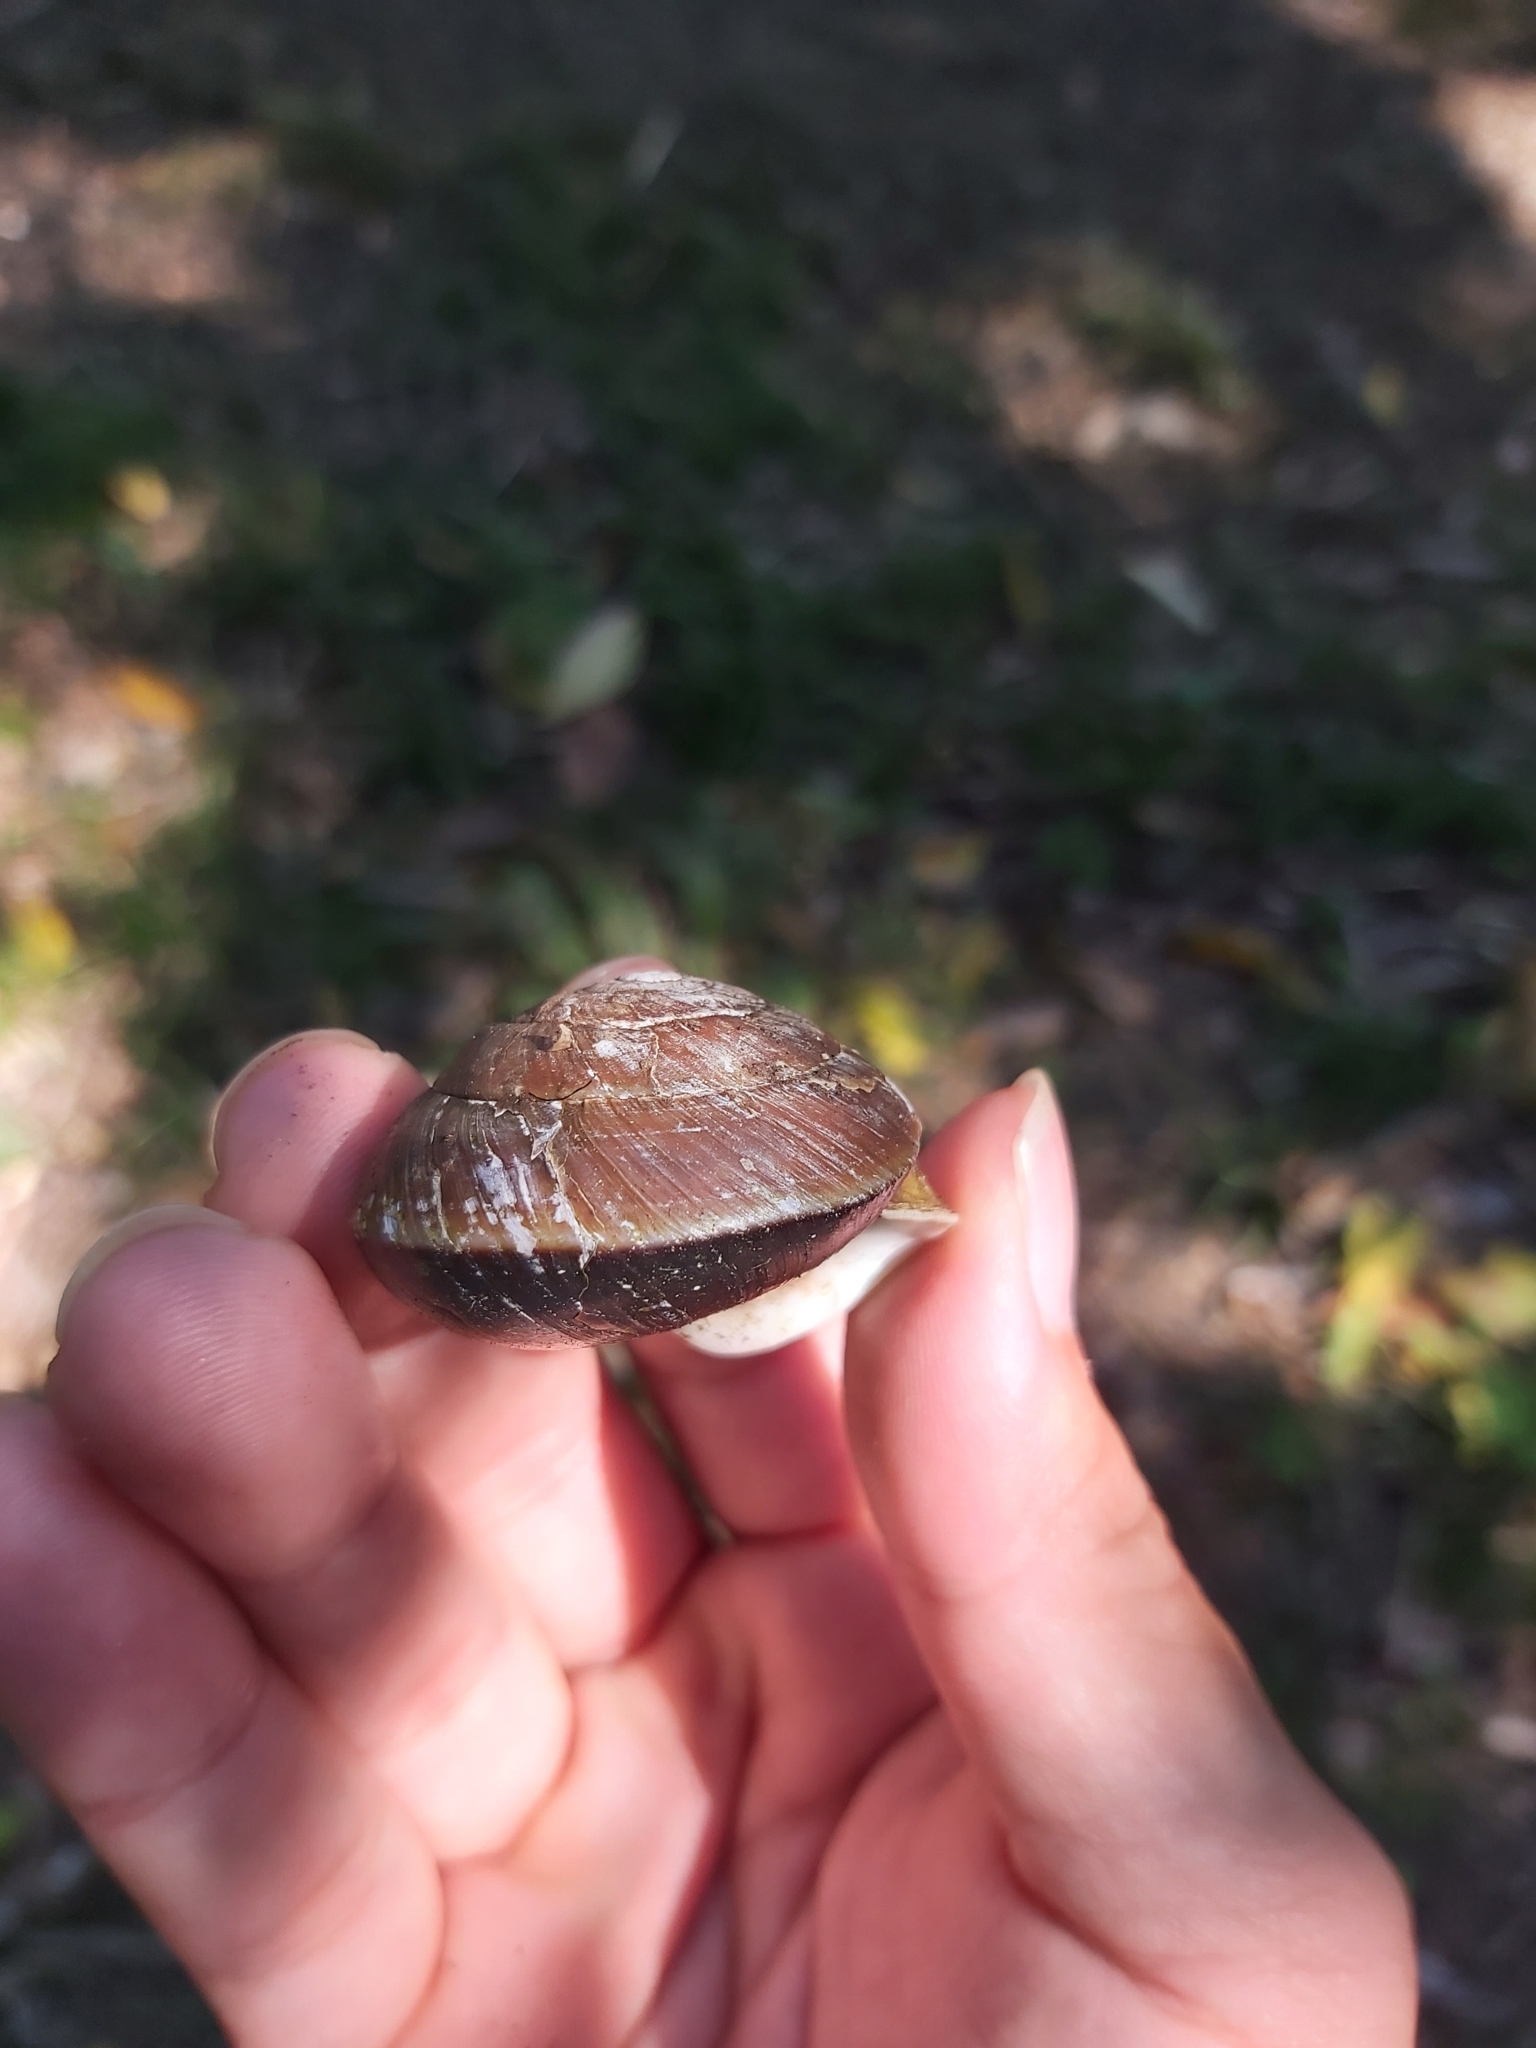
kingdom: Animalia
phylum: Mollusca
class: Gastropoda
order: Stylommatophora
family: Camaenidae
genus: Hadra
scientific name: Hadra webbi
